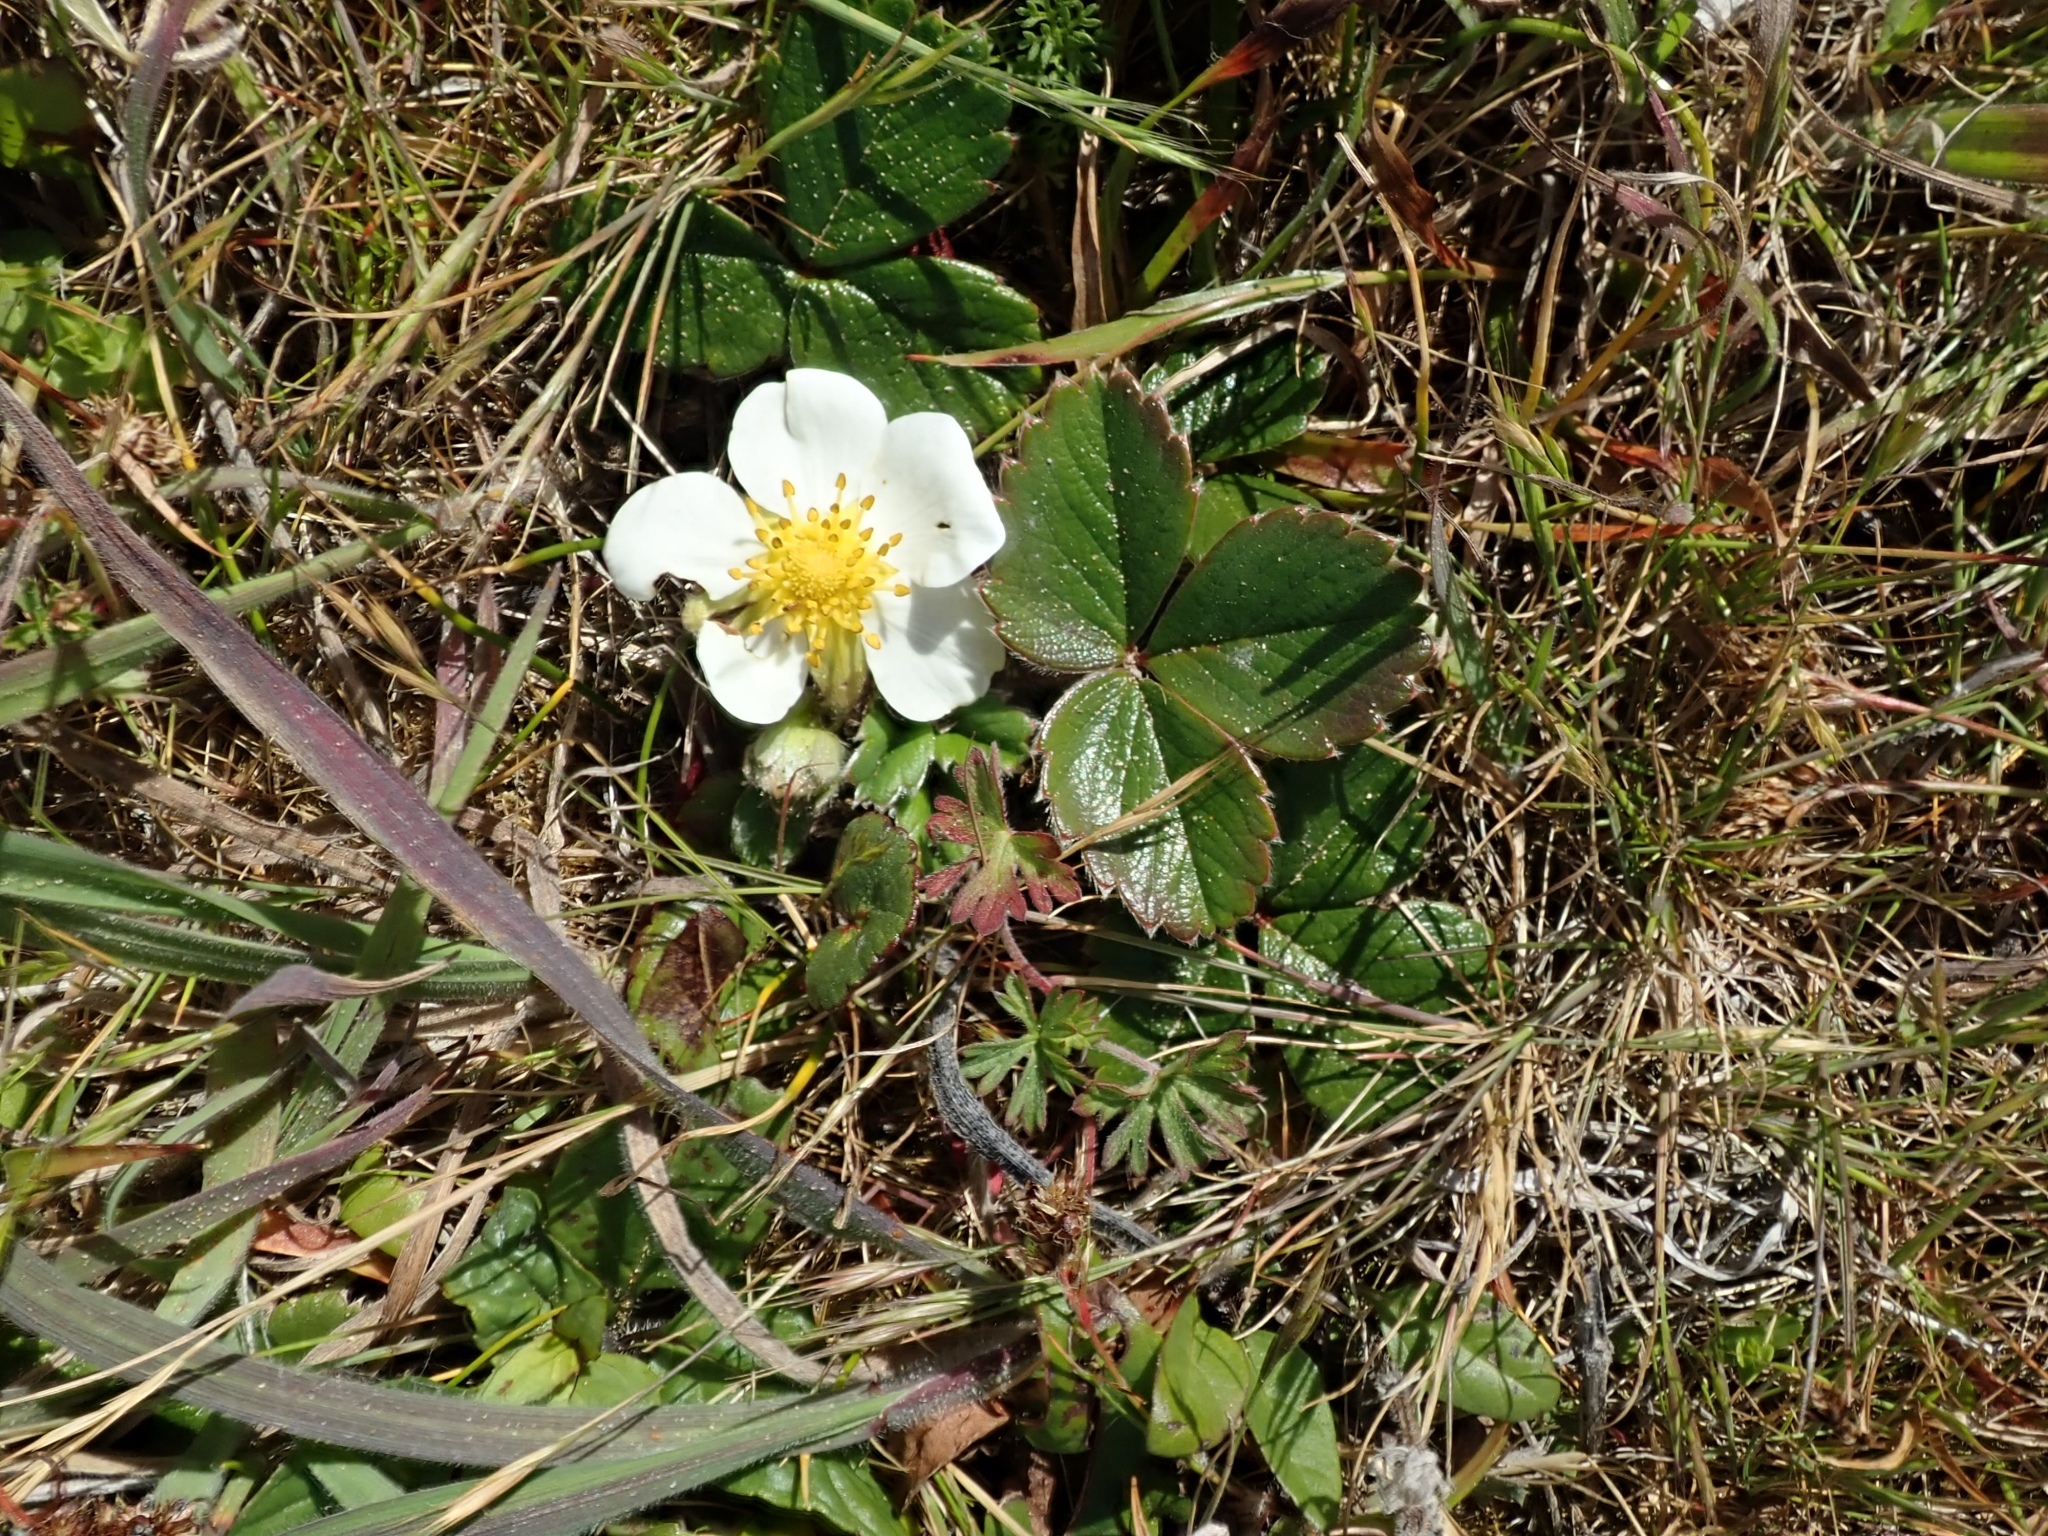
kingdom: Plantae
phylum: Tracheophyta
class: Magnoliopsida
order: Rosales
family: Rosaceae
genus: Fragaria
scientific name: Fragaria chiloensis
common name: Beach strawberry
